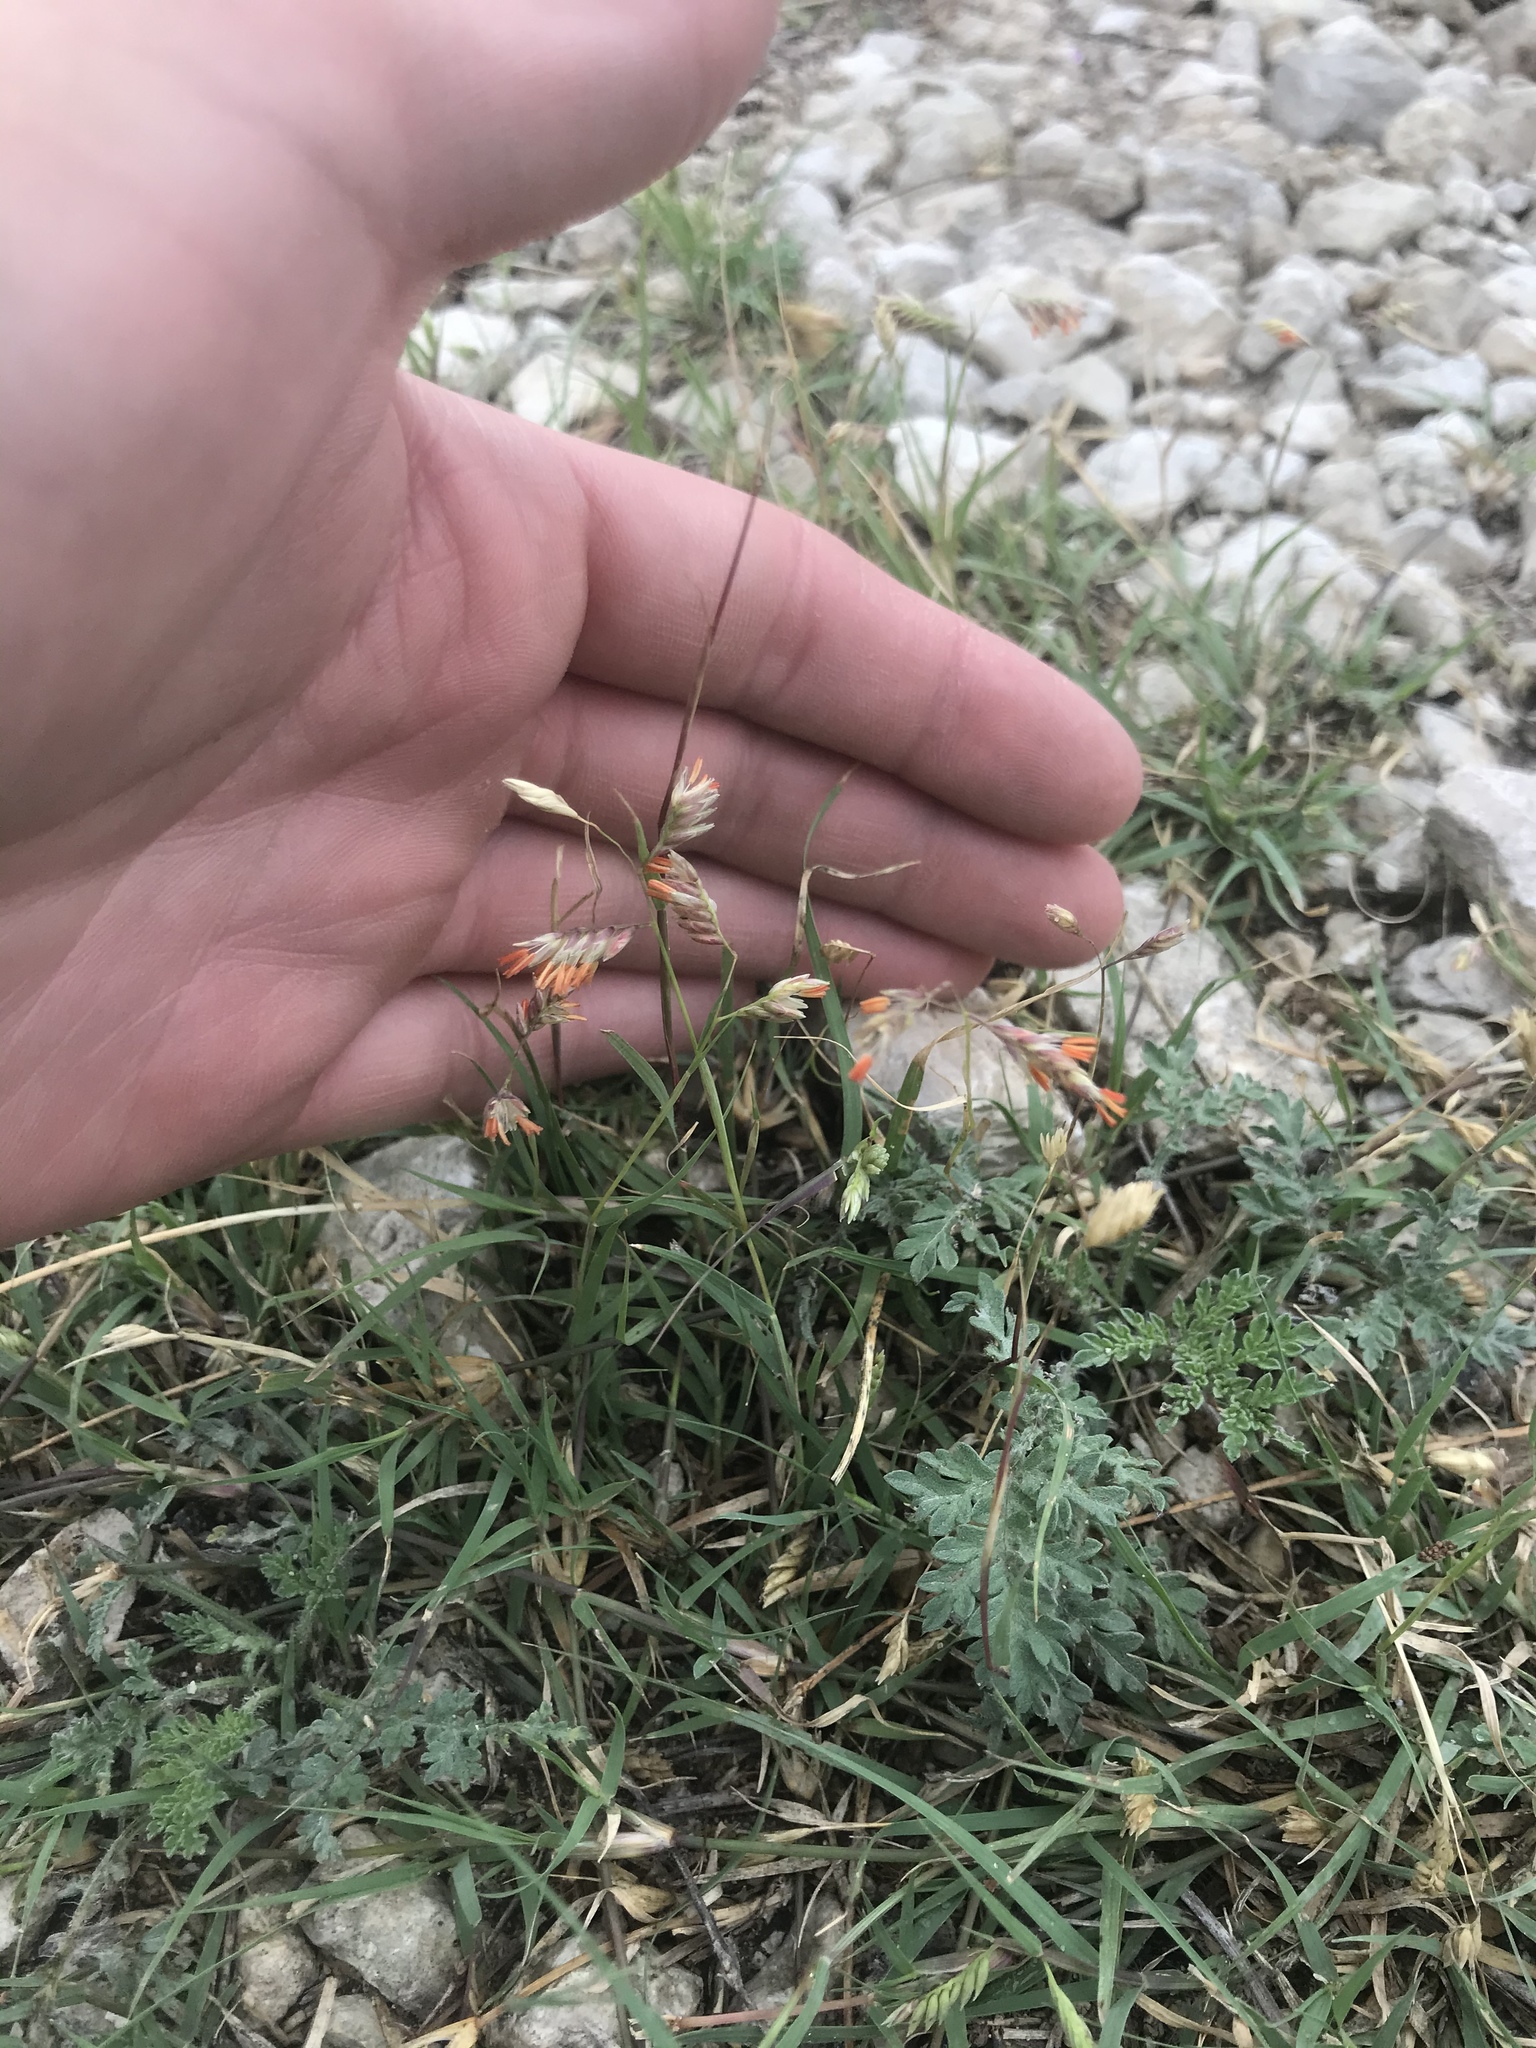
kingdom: Plantae
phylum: Tracheophyta
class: Liliopsida
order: Poales
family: Poaceae
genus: Bouteloua
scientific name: Bouteloua dactyloides
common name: Buffalo grass
